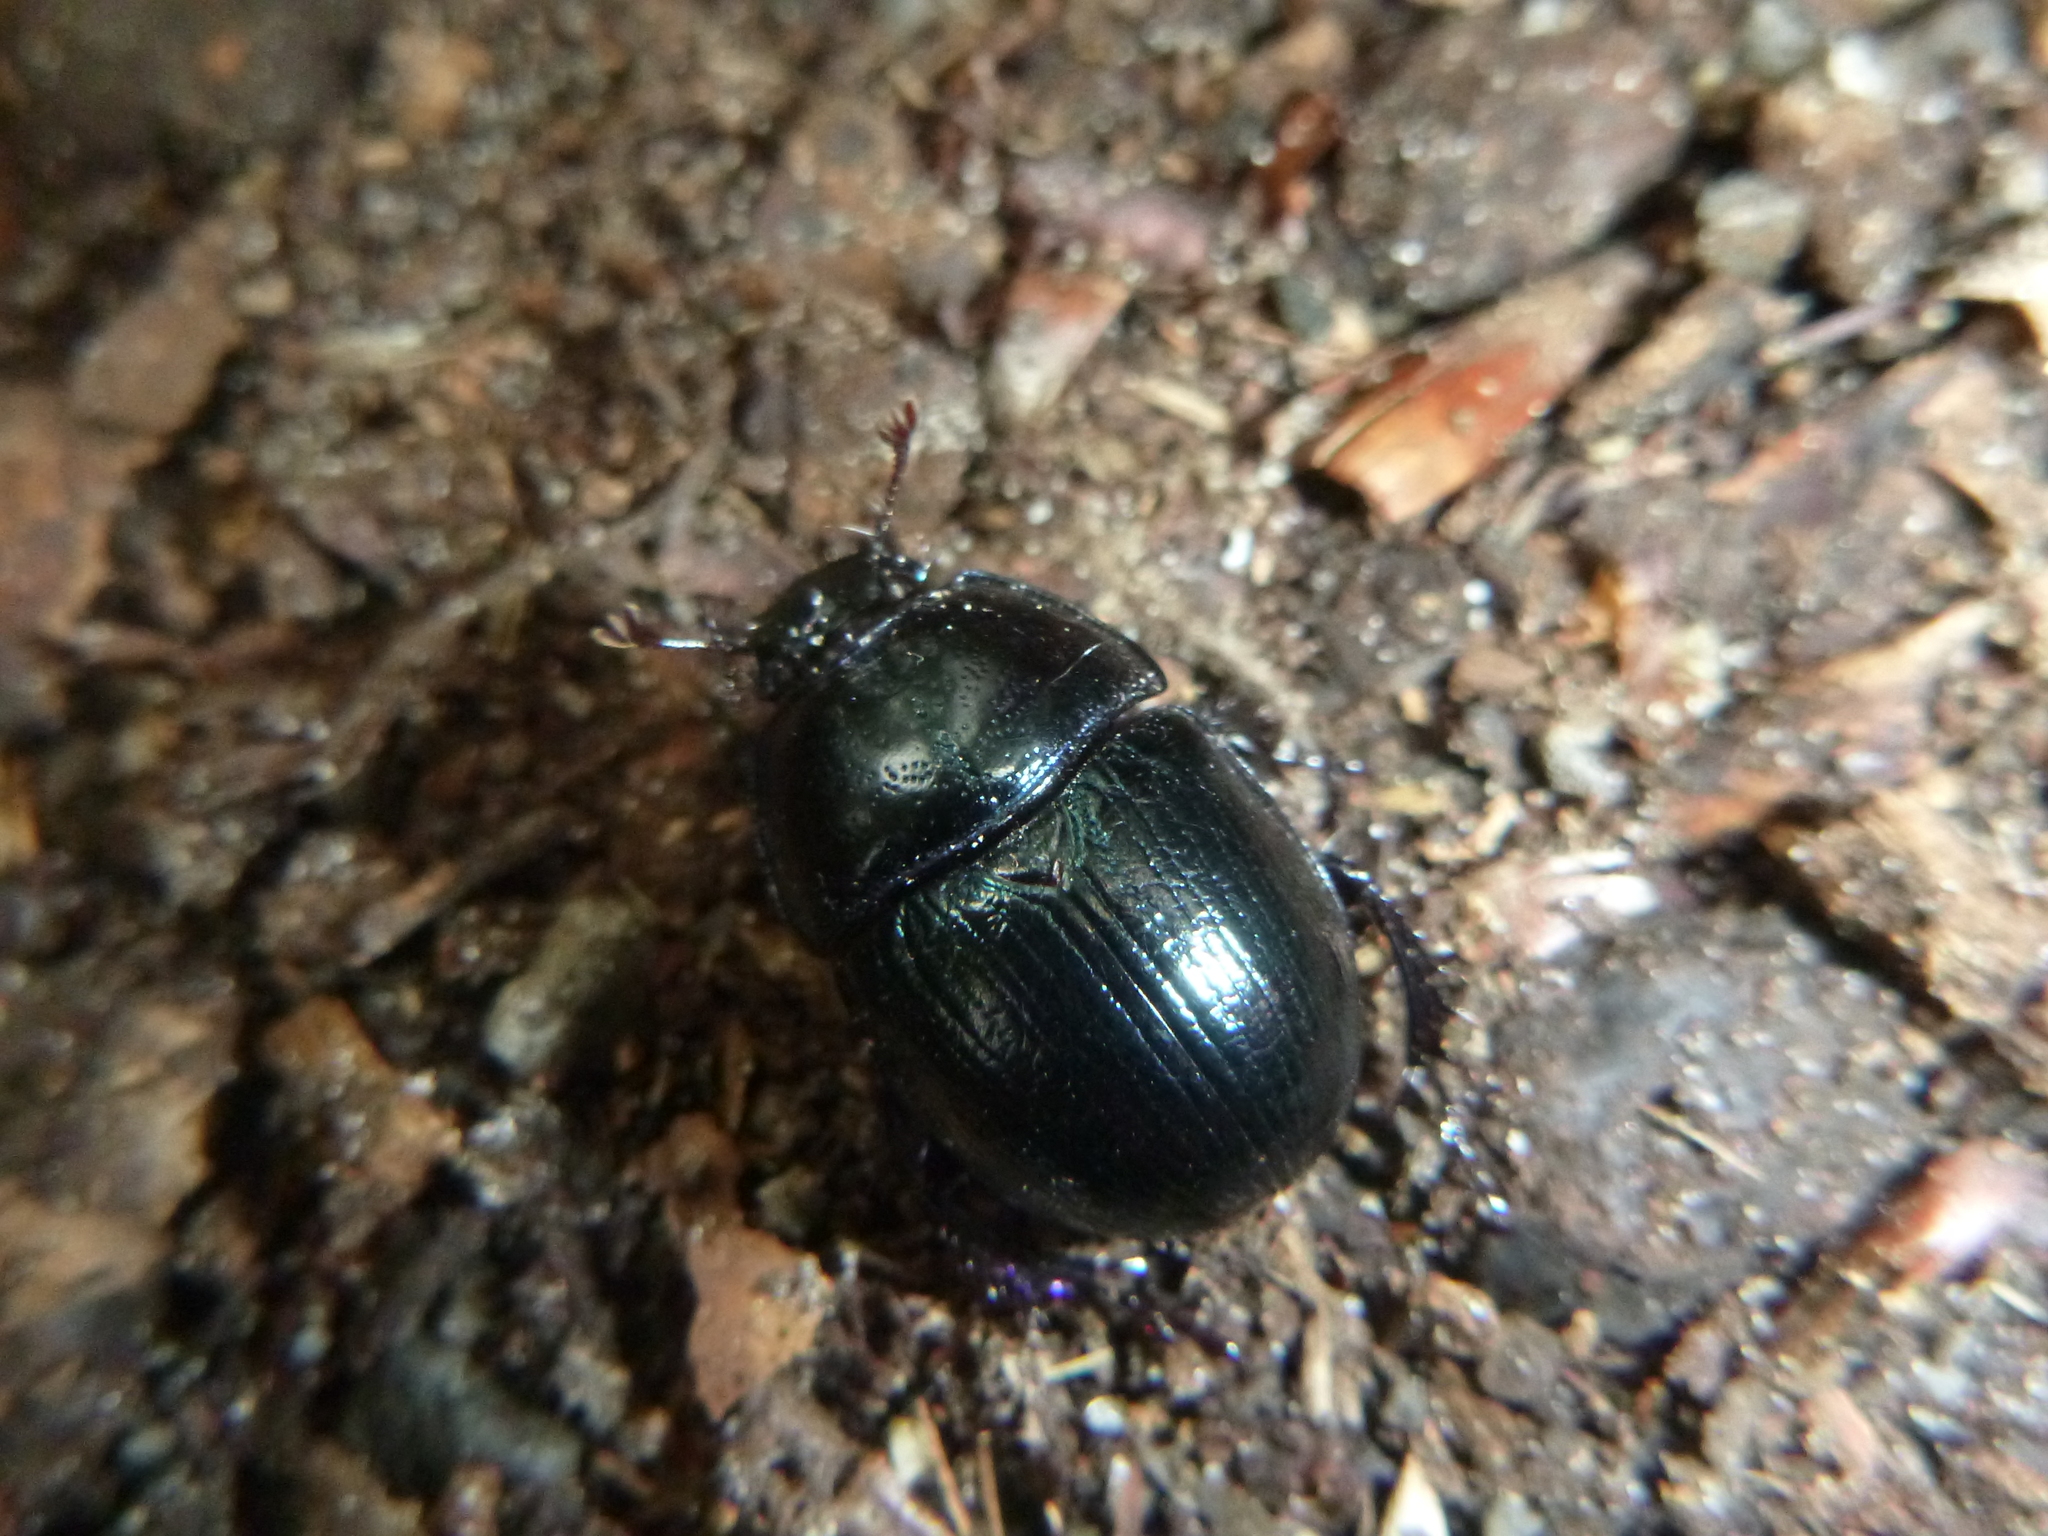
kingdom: Animalia
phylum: Arthropoda
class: Insecta
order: Coleoptera
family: Geotrupidae
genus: Anoplotrupes
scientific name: Anoplotrupes stercorosus
